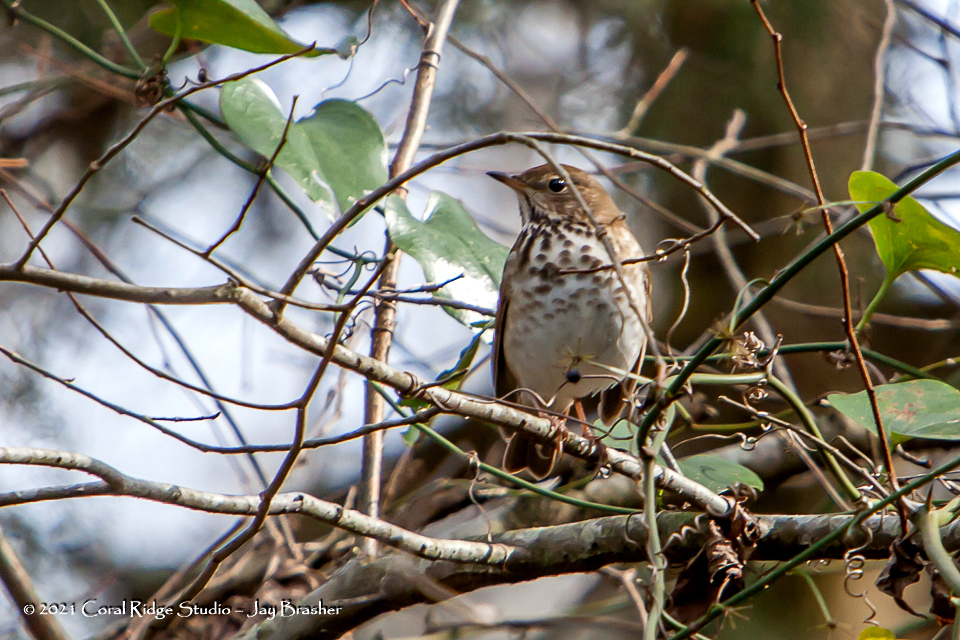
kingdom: Animalia
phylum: Chordata
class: Aves
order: Passeriformes
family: Turdidae
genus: Catharus
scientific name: Catharus guttatus
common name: Hermit thrush
